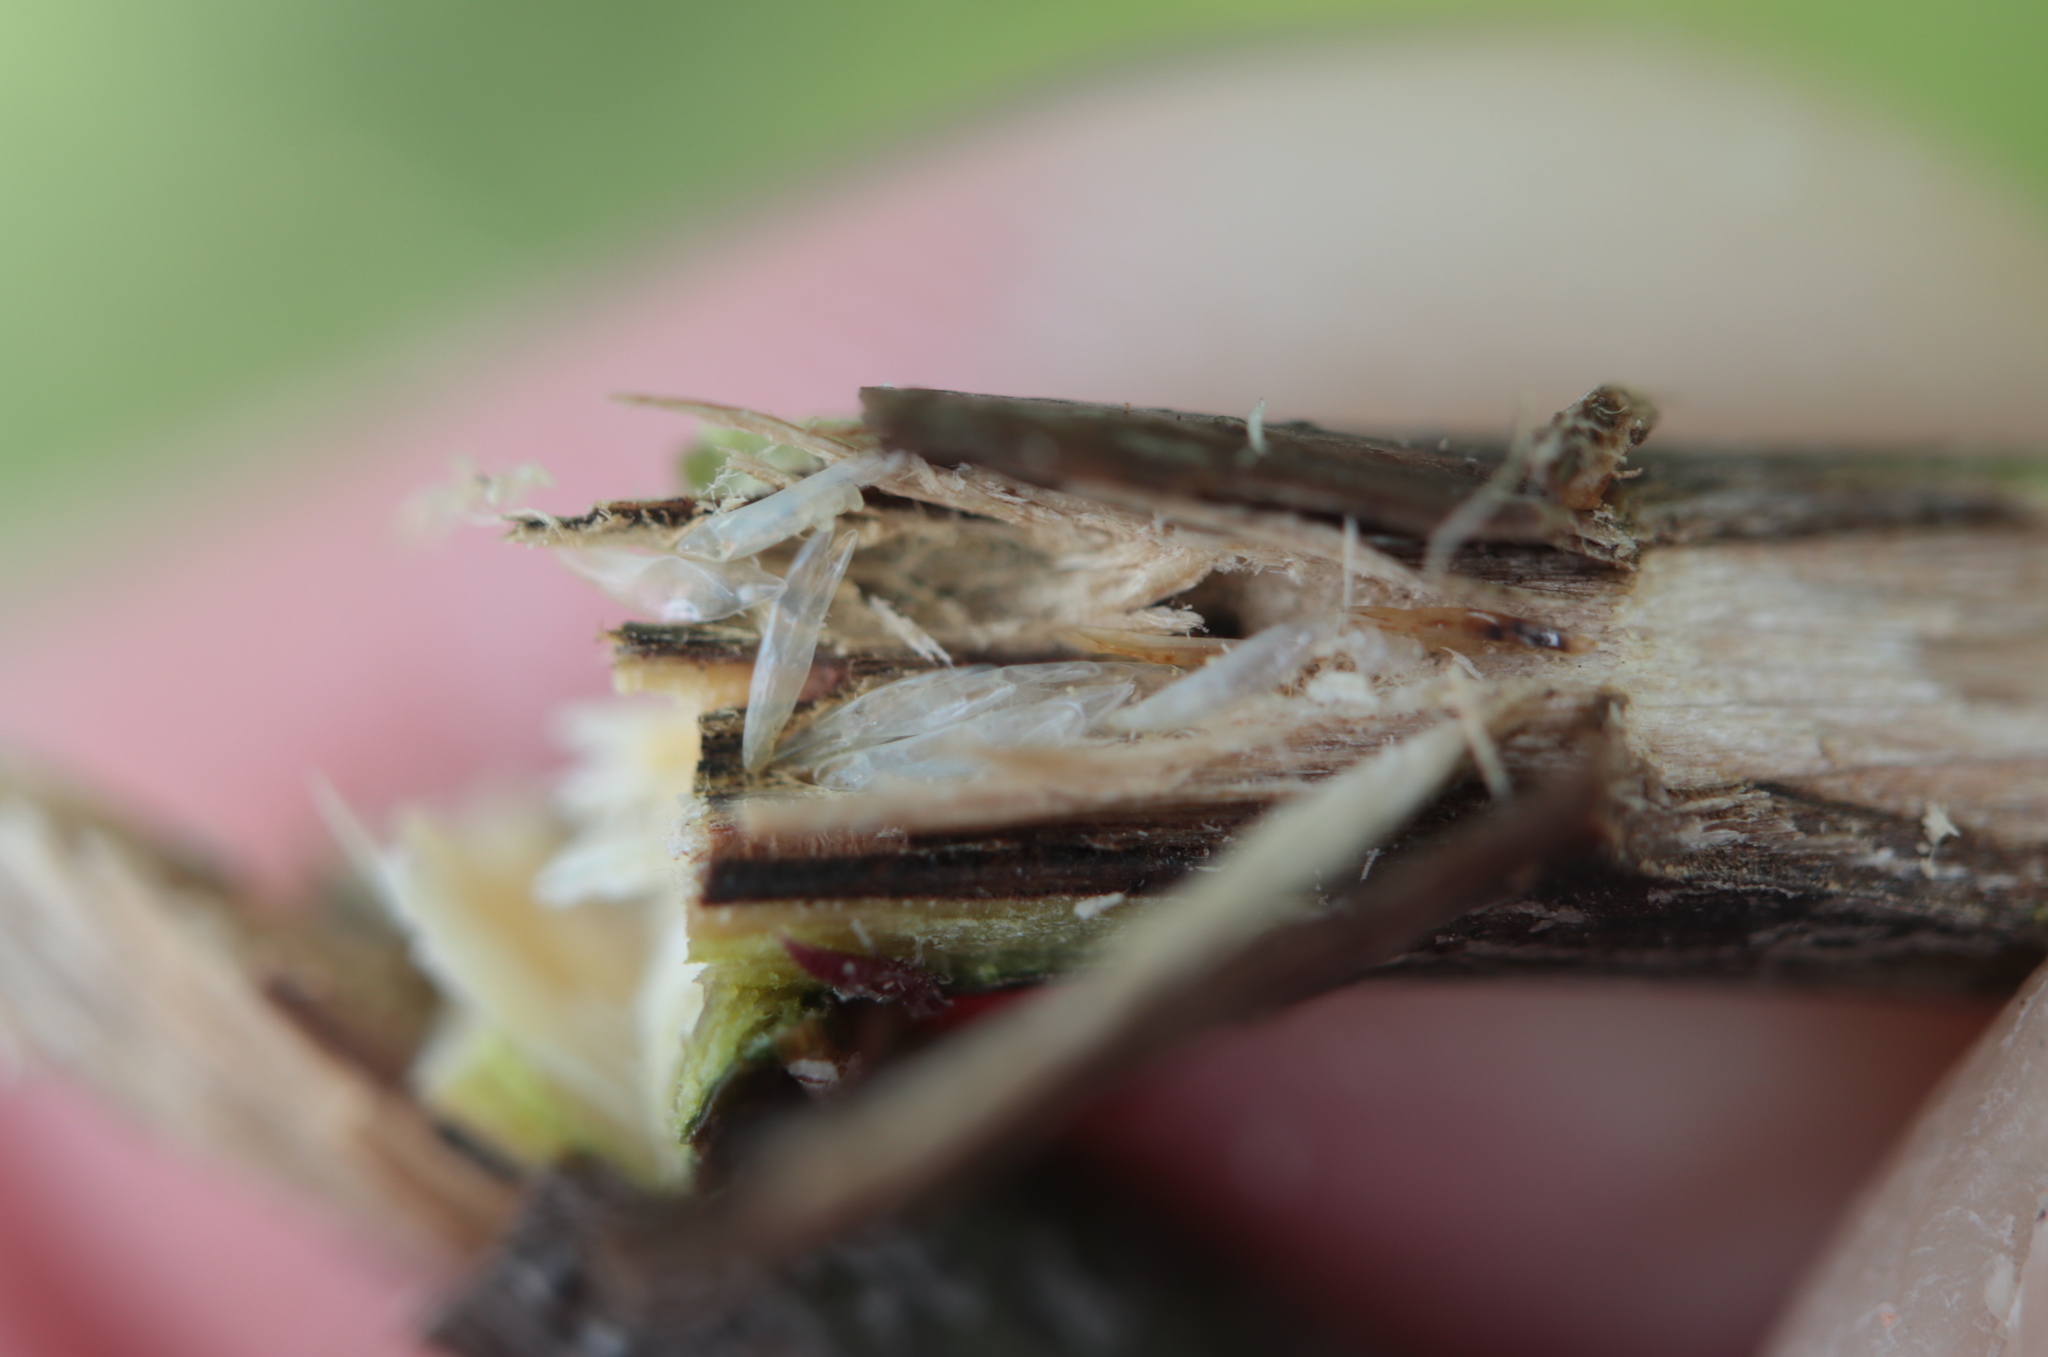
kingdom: Animalia
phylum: Arthropoda
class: Insecta
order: Hemiptera
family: Cicadidae
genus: Magicicada
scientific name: Magicicada
